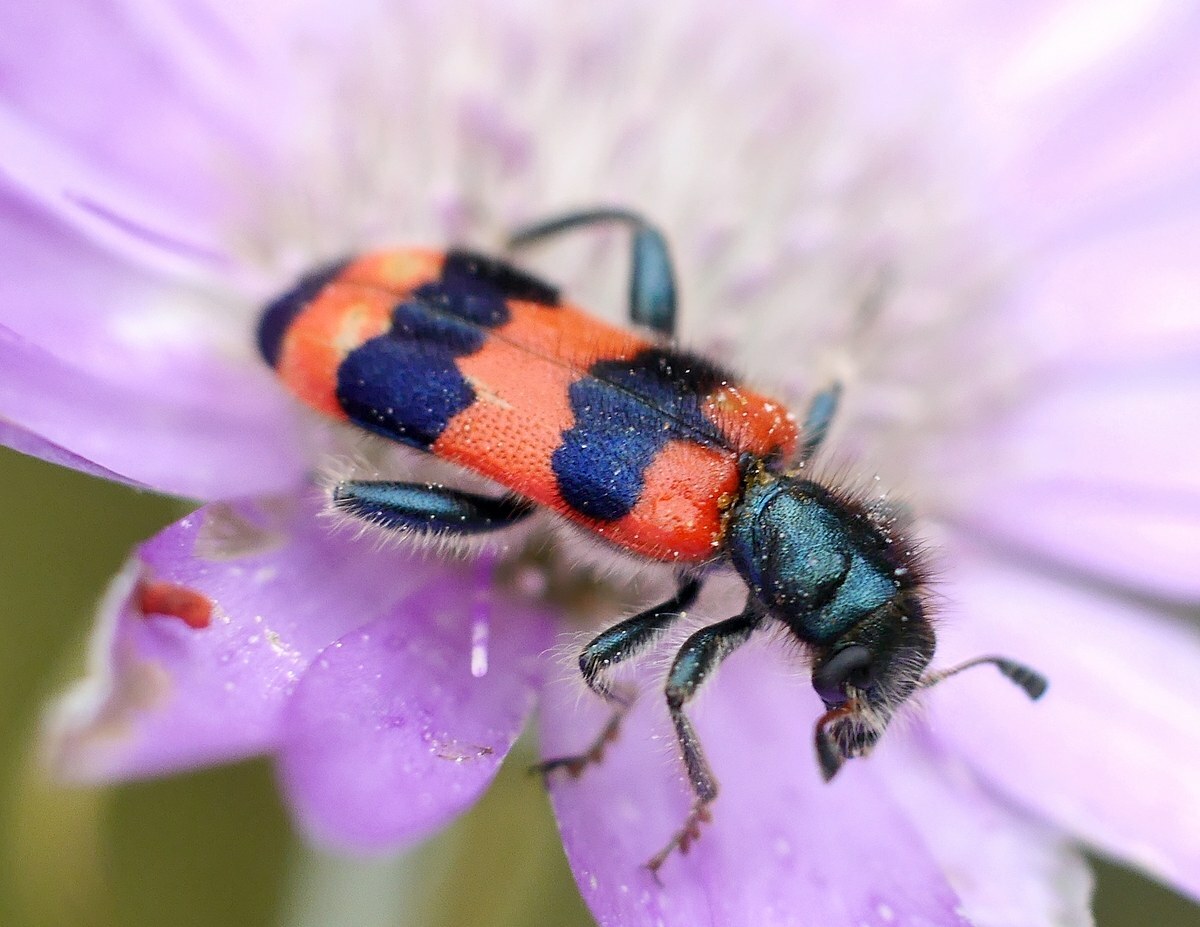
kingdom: Animalia
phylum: Arthropoda
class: Insecta
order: Coleoptera
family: Cleridae
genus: Trichodes
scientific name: Trichodes apiarius
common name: Bee-eating beetle
